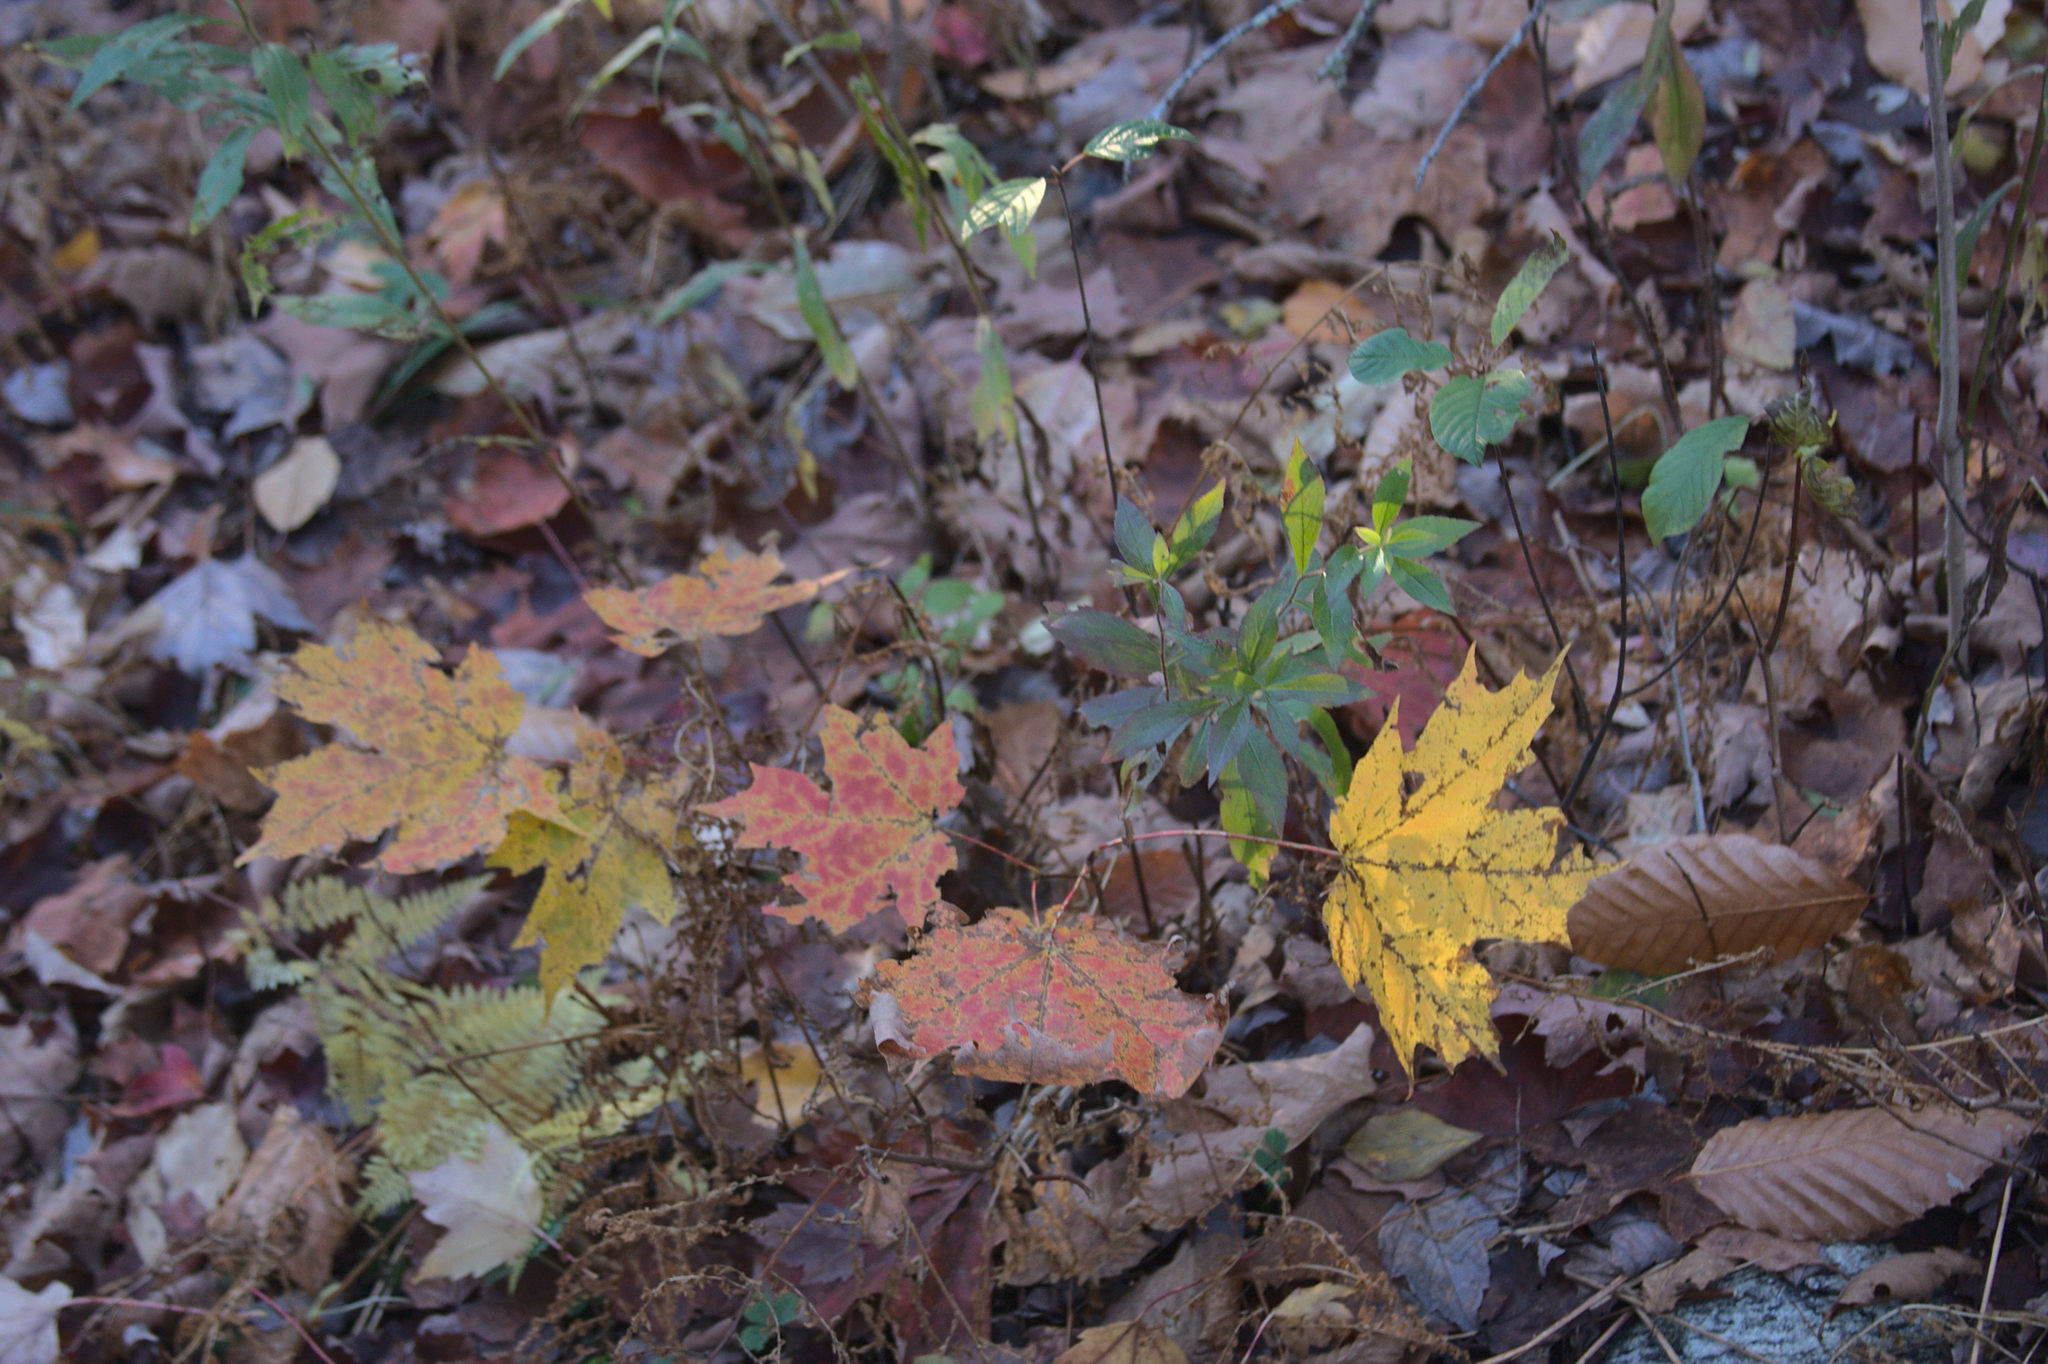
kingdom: Plantae
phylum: Tracheophyta
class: Magnoliopsida
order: Sapindales
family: Sapindaceae
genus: Acer
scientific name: Acer saccharum
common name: Sugar maple
